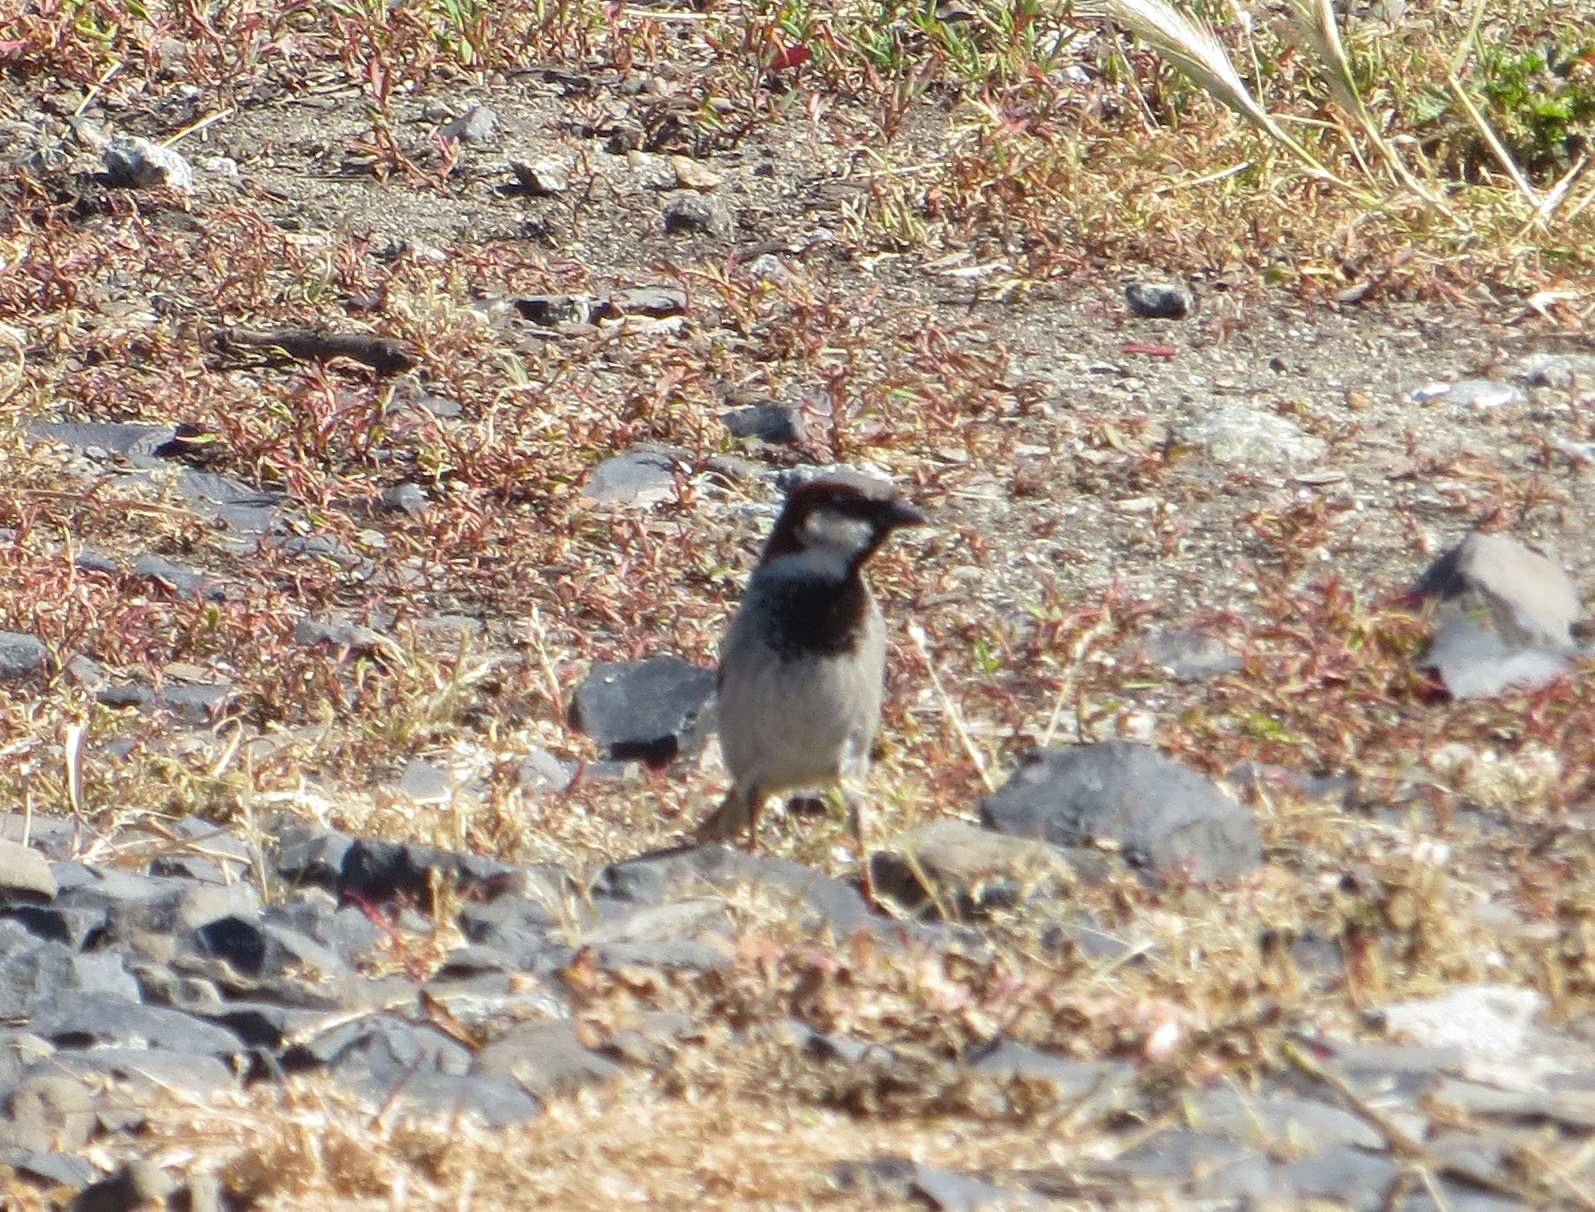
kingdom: Animalia
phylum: Chordata
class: Aves
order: Passeriformes
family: Passeridae
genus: Passer
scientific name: Passer domesticus
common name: House sparrow
